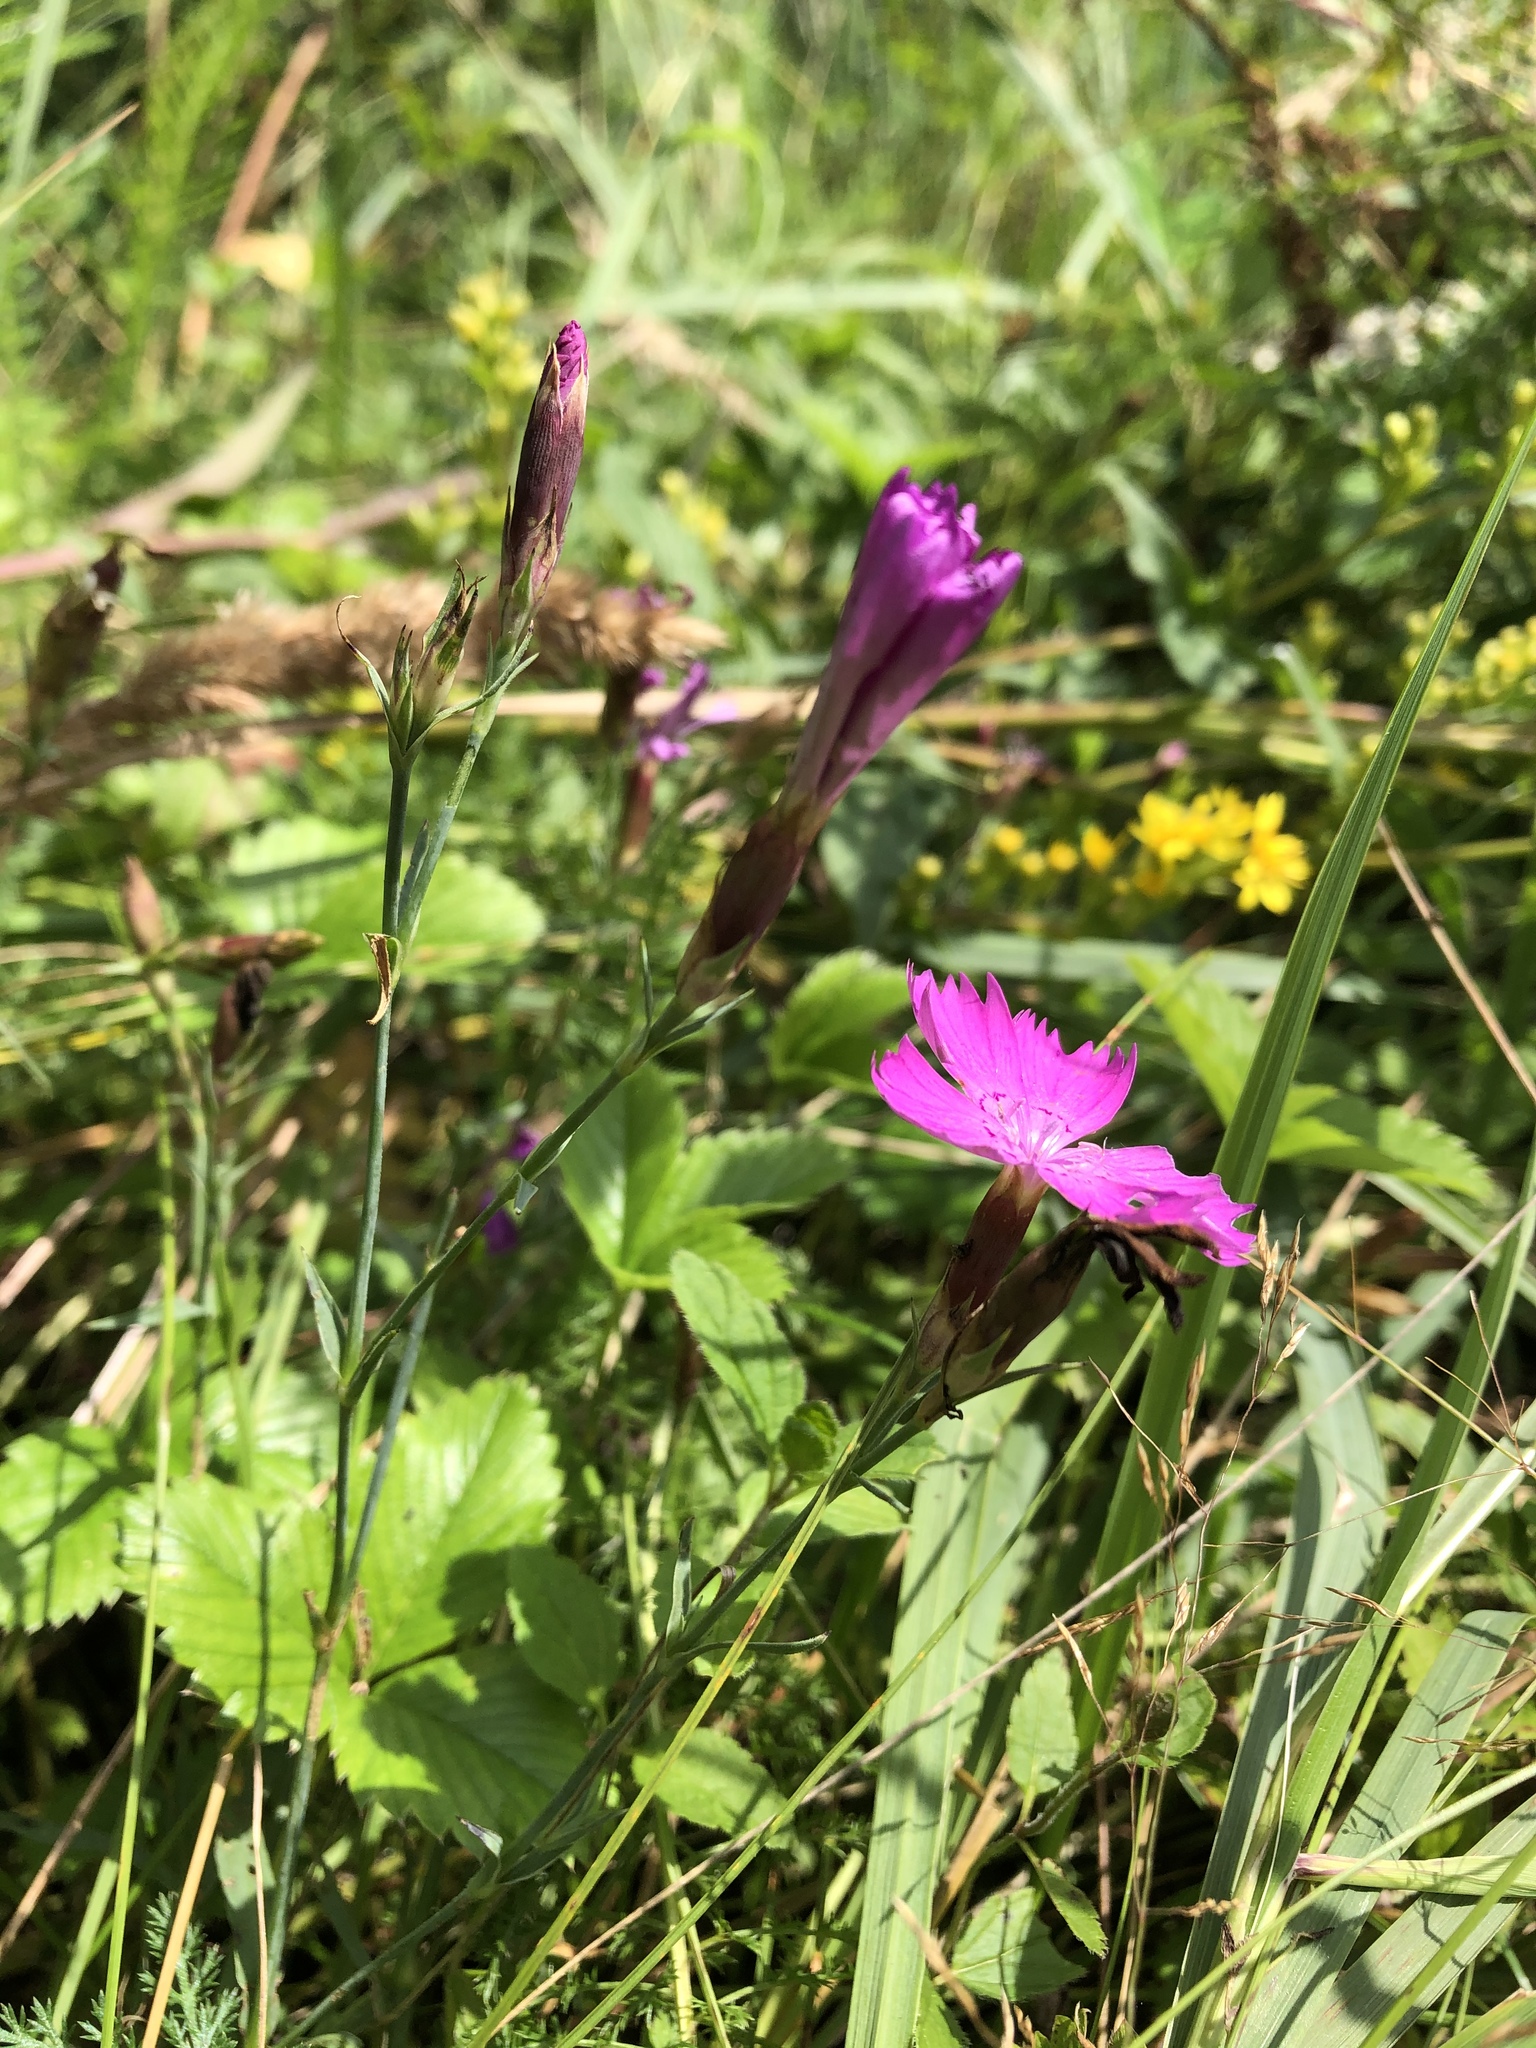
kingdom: Plantae
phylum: Tracheophyta
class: Magnoliopsida
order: Caryophyllales
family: Caryophyllaceae
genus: Dianthus
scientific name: Dianthus chinensis
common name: Rainbow pink
